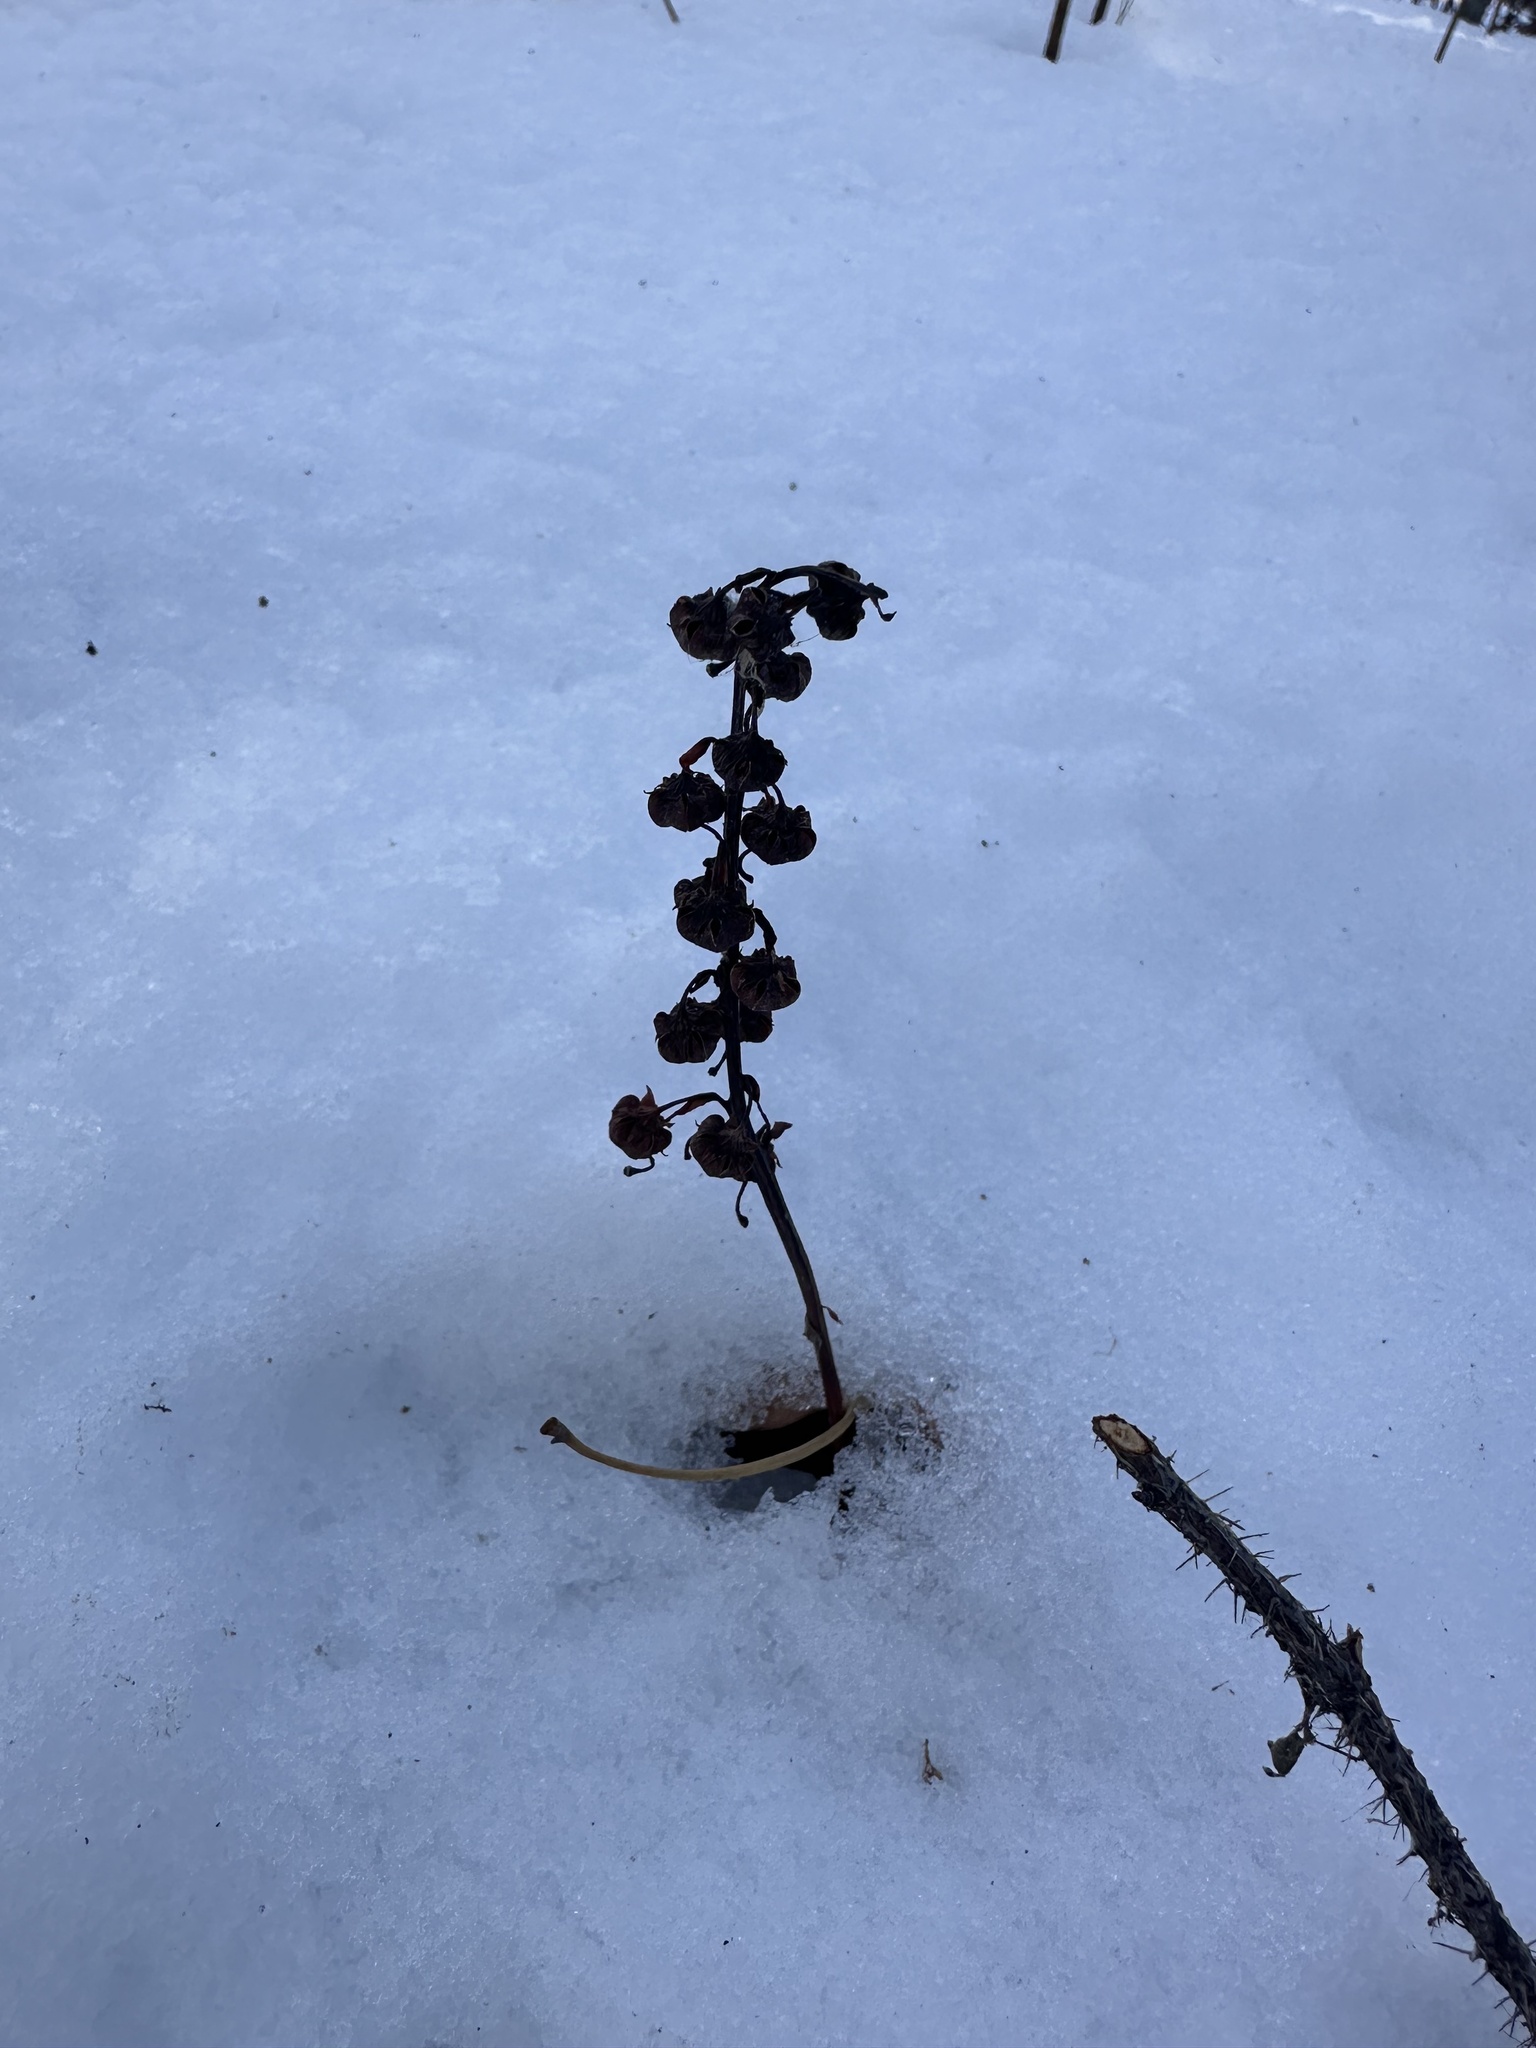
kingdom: Plantae
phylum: Tracheophyta
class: Magnoliopsida
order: Ericales
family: Ericaceae
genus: Pyrola
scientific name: Pyrola asarifolia
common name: Bog wintergreen
